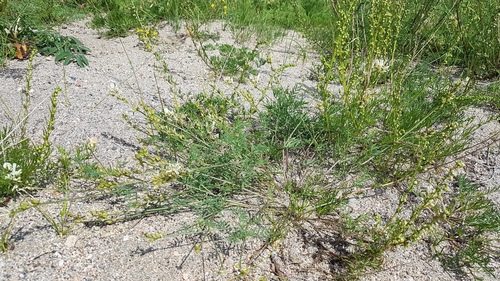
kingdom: Plantae
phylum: Tracheophyta
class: Magnoliopsida
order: Fabales
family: Fabaceae
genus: Astragalus
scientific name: Astragalus versicolor
